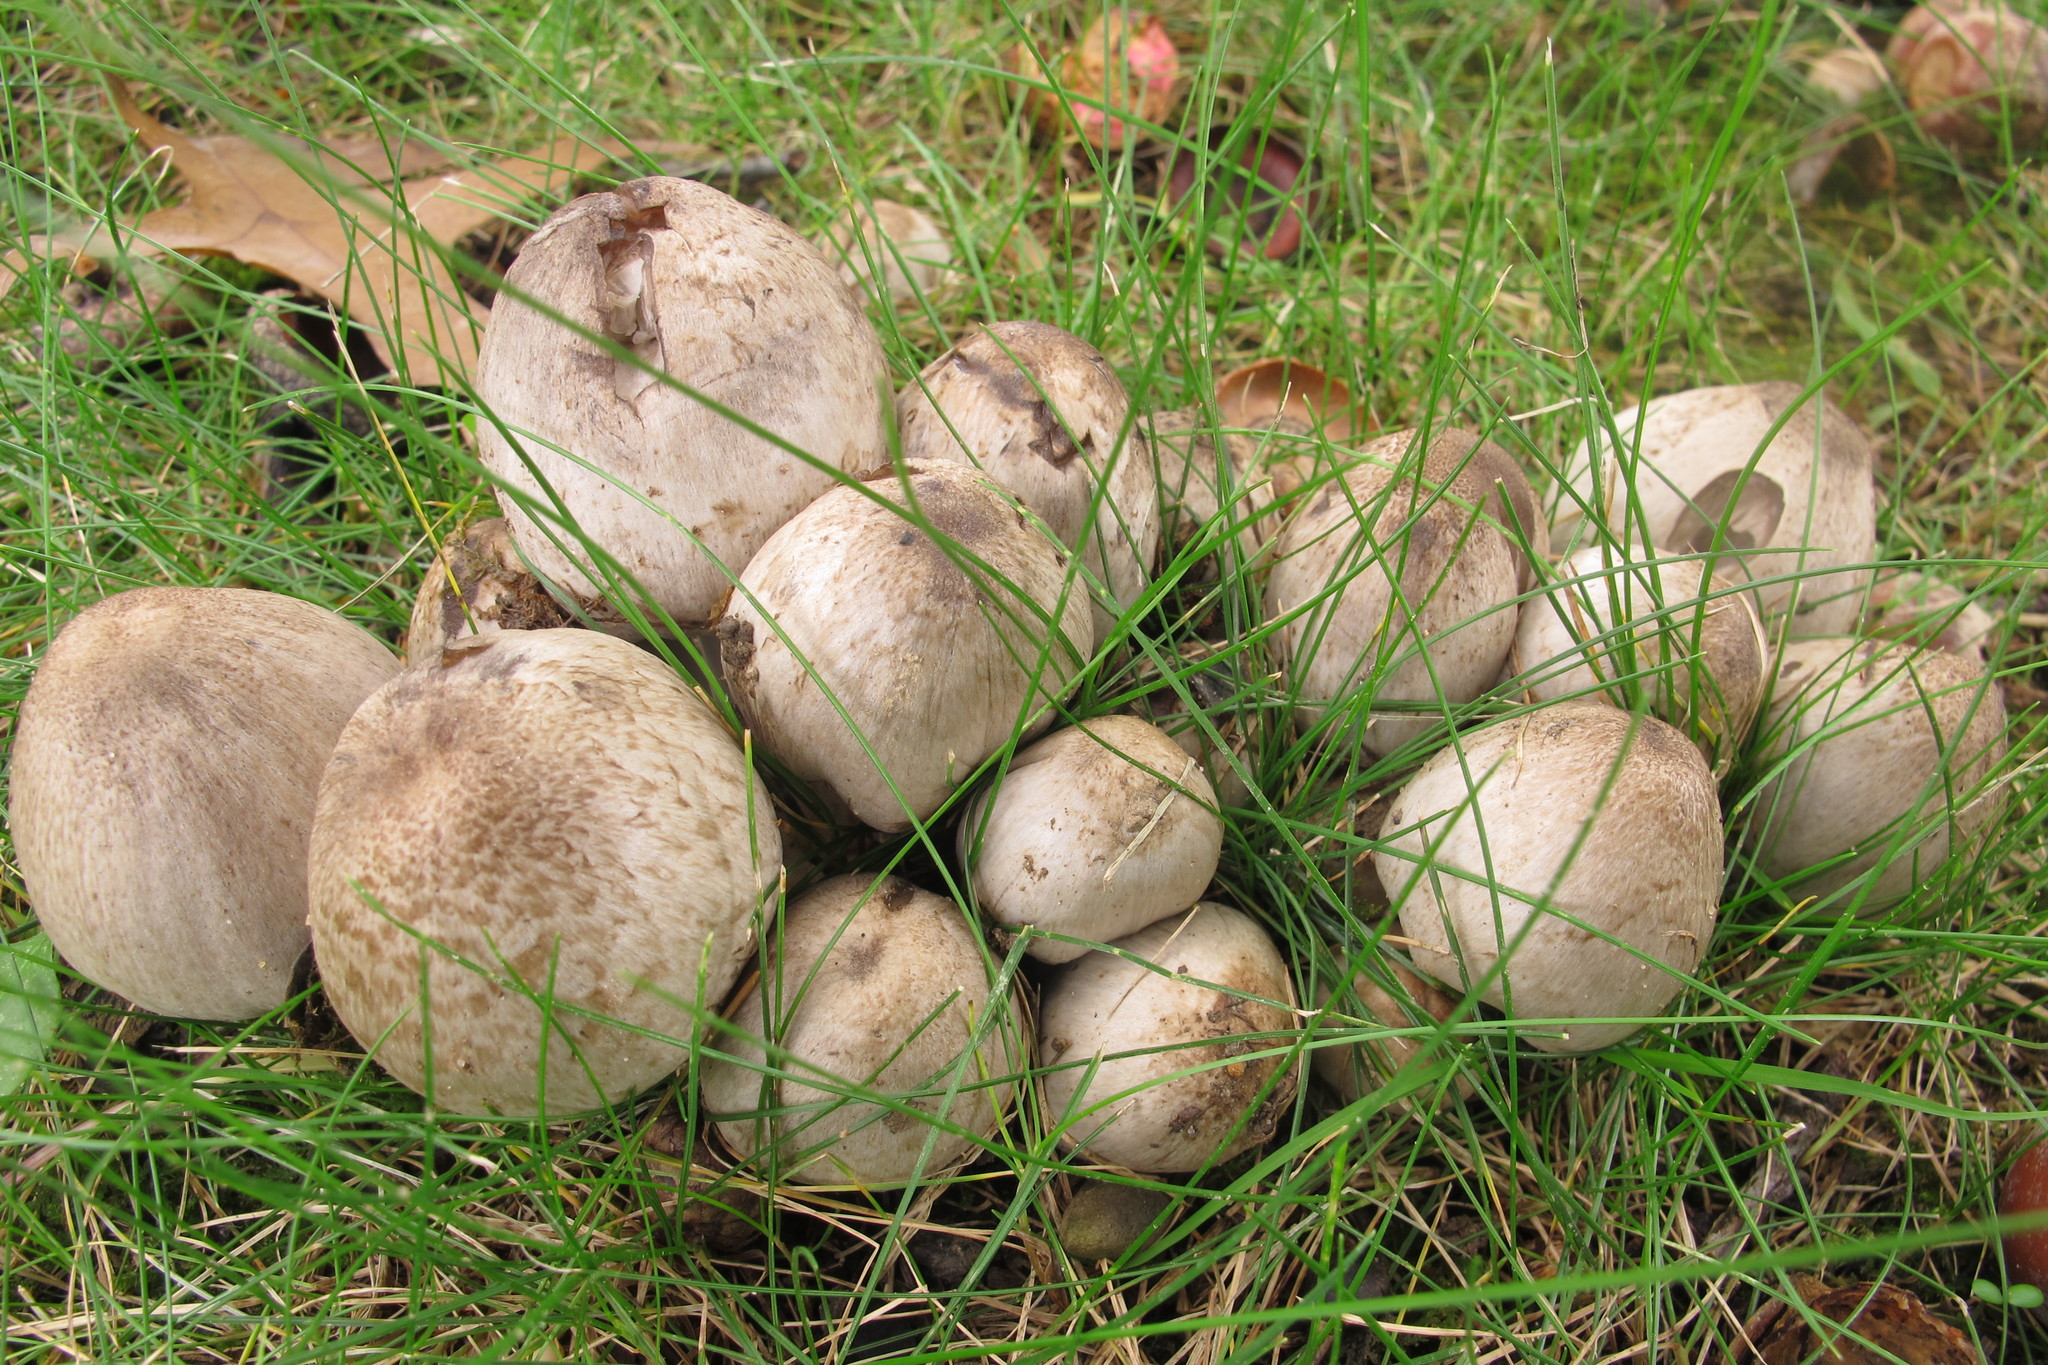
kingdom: Fungi
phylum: Basidiomycota
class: Agaricomycetes
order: Agaricales
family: Psathyrellaceae
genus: Coprinopsis
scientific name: Coprinopsis atramentaria
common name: Common ink-cap
